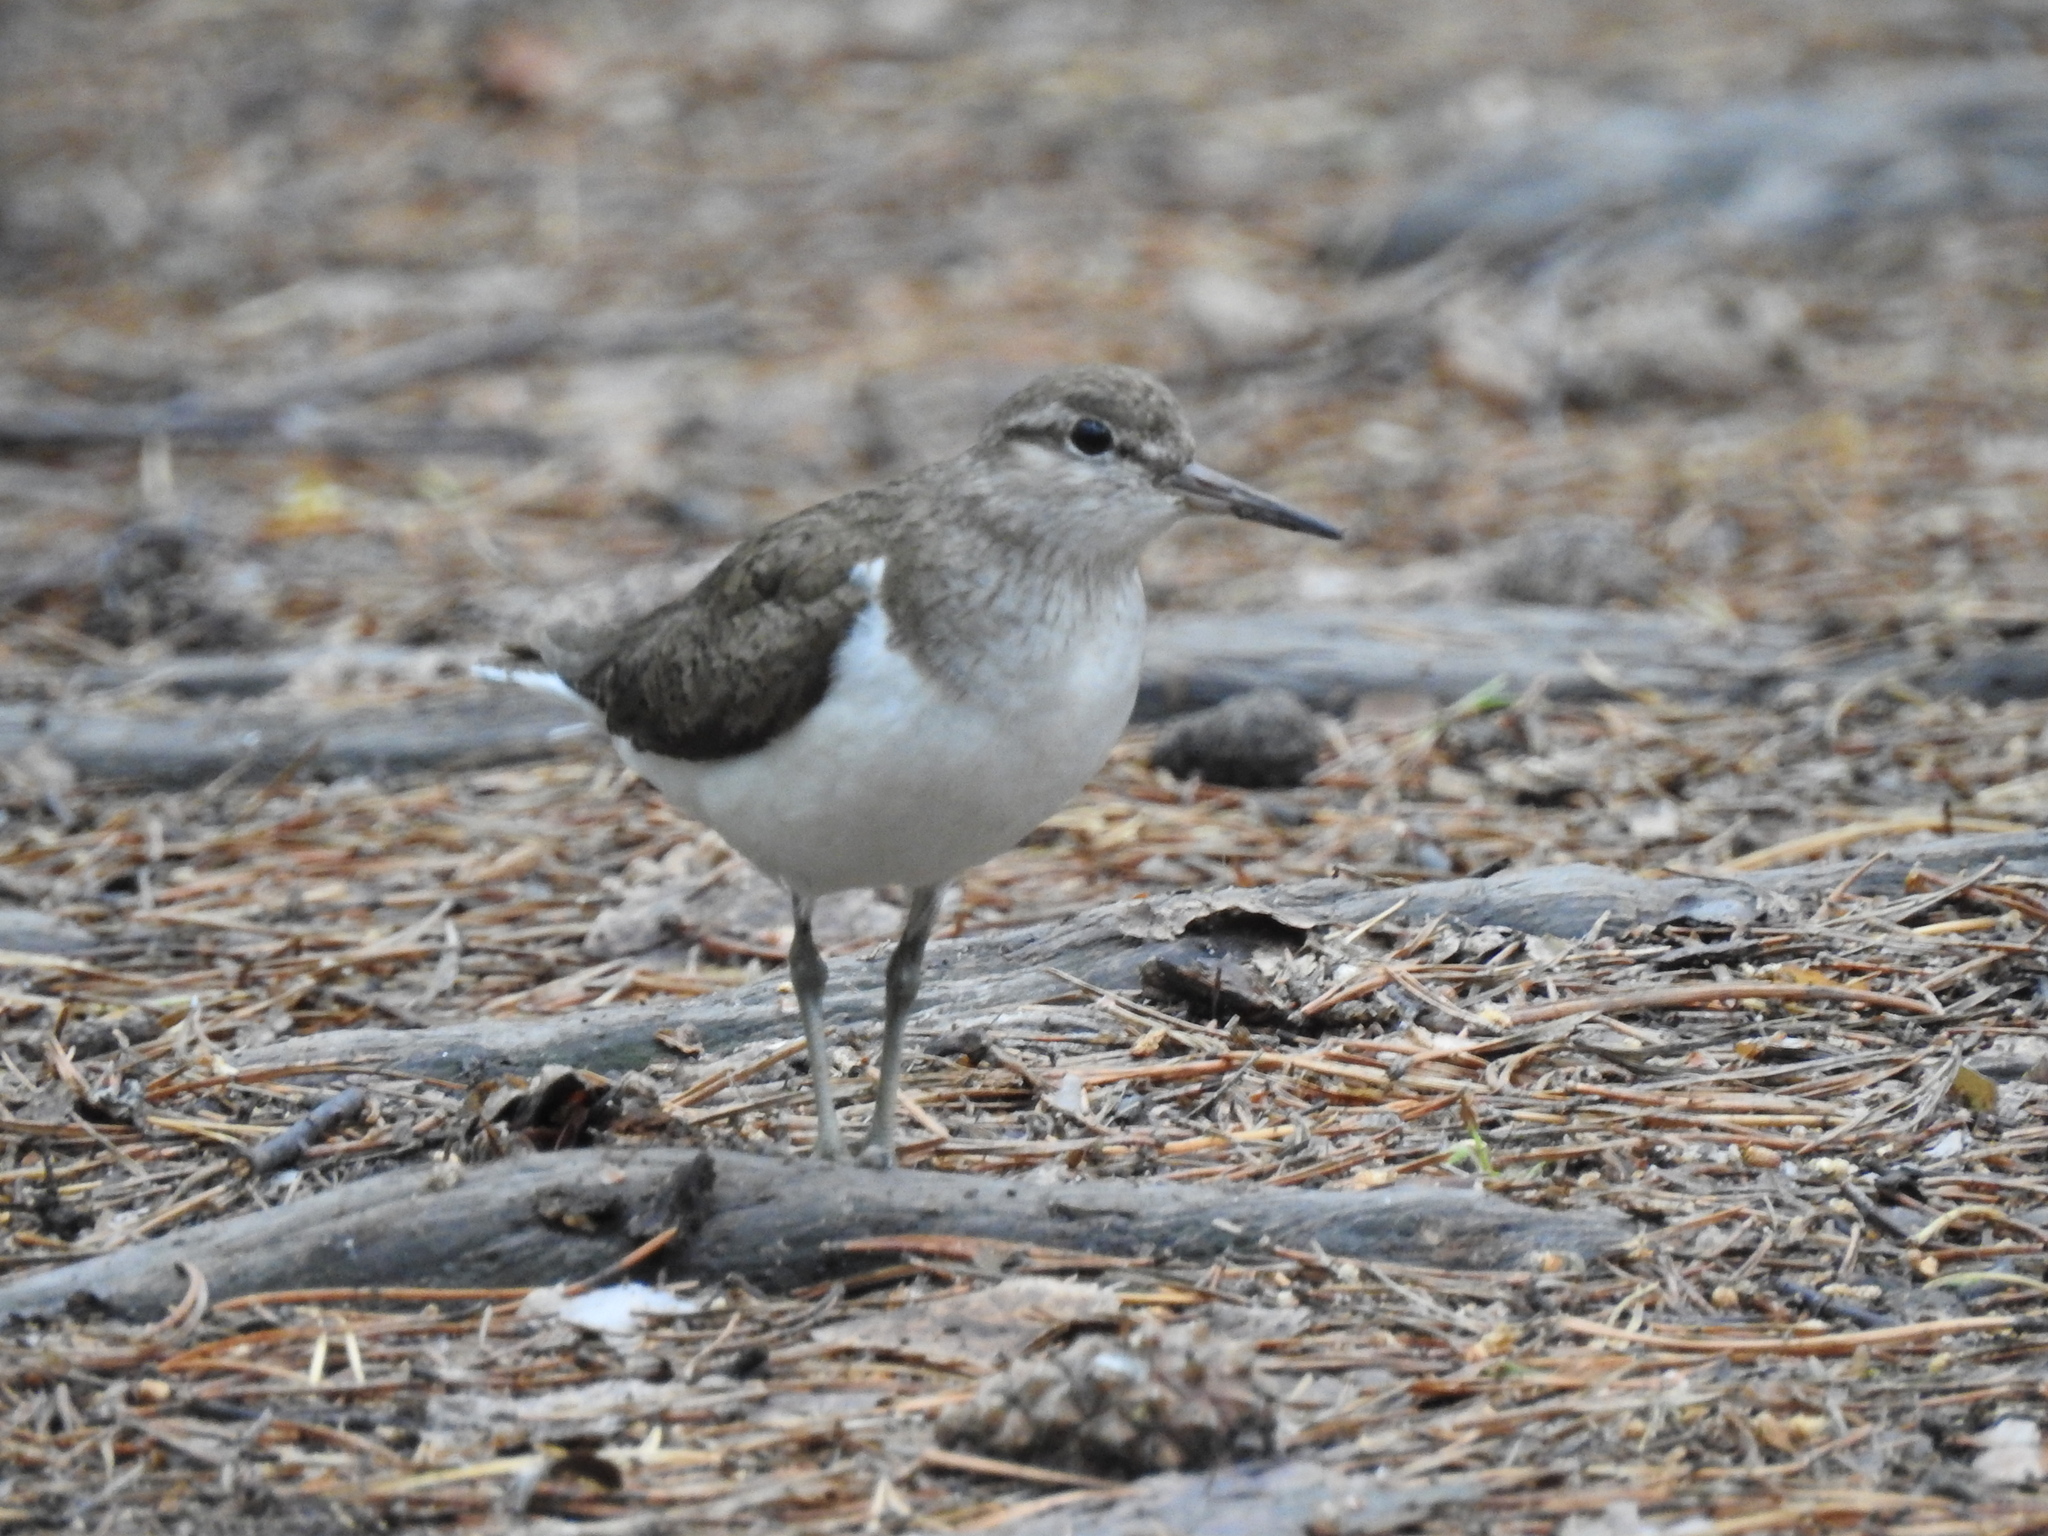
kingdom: Animalia
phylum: Chordata
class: Aves
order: Charadriiformes
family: Scolopacidae
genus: Actitis
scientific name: Actitis hypoleucos
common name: Common sandpiper
